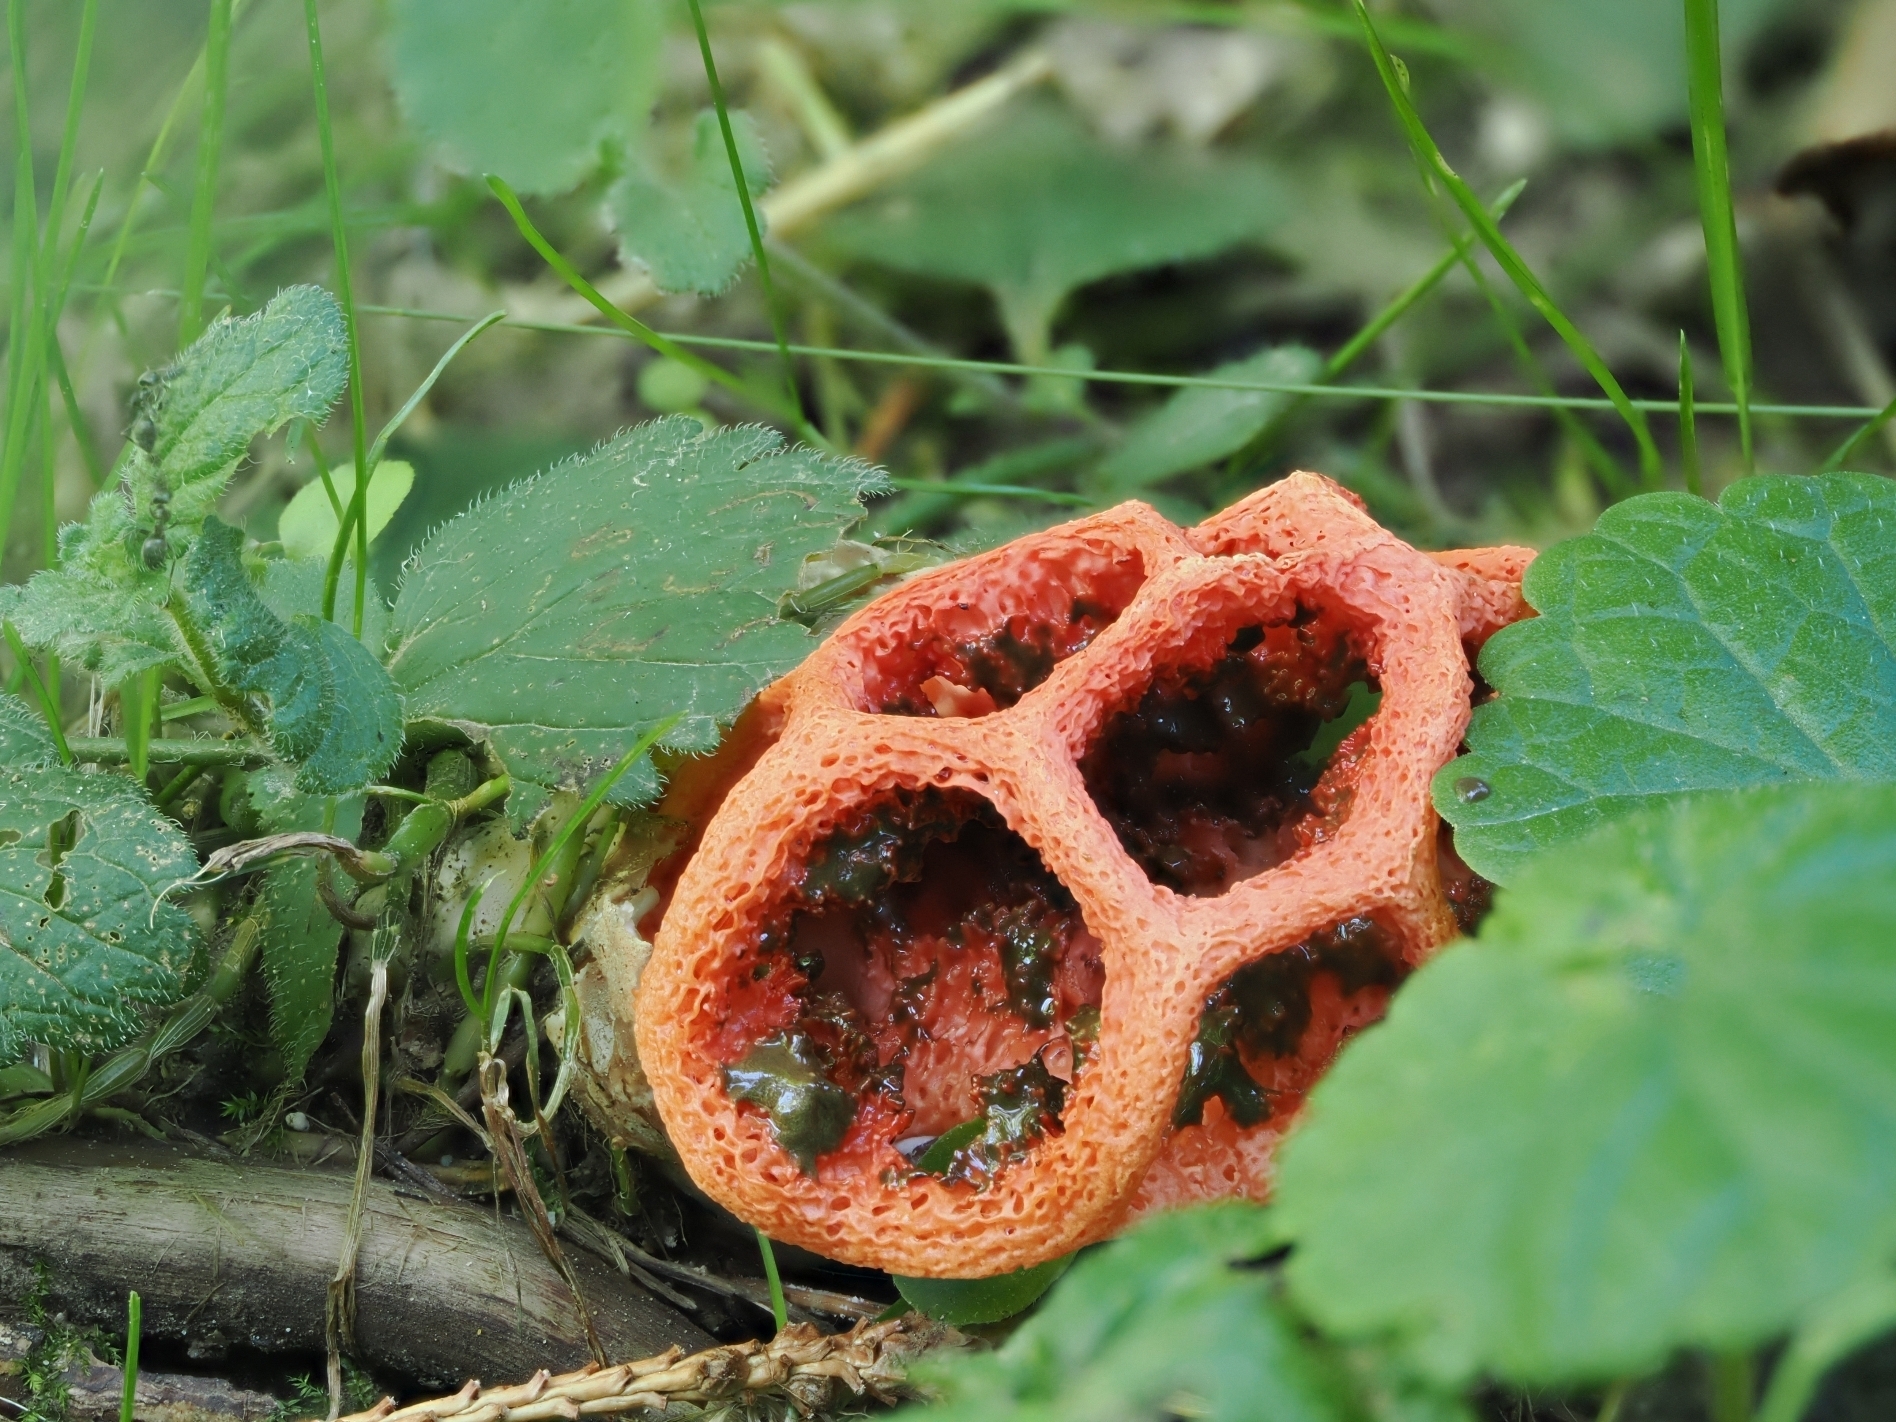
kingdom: Fungi
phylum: Basidiomycota
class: Agaricomycetes
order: Phallales
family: Phallaceae
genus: Clathrus
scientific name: Clathrus ruber
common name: Red cage
